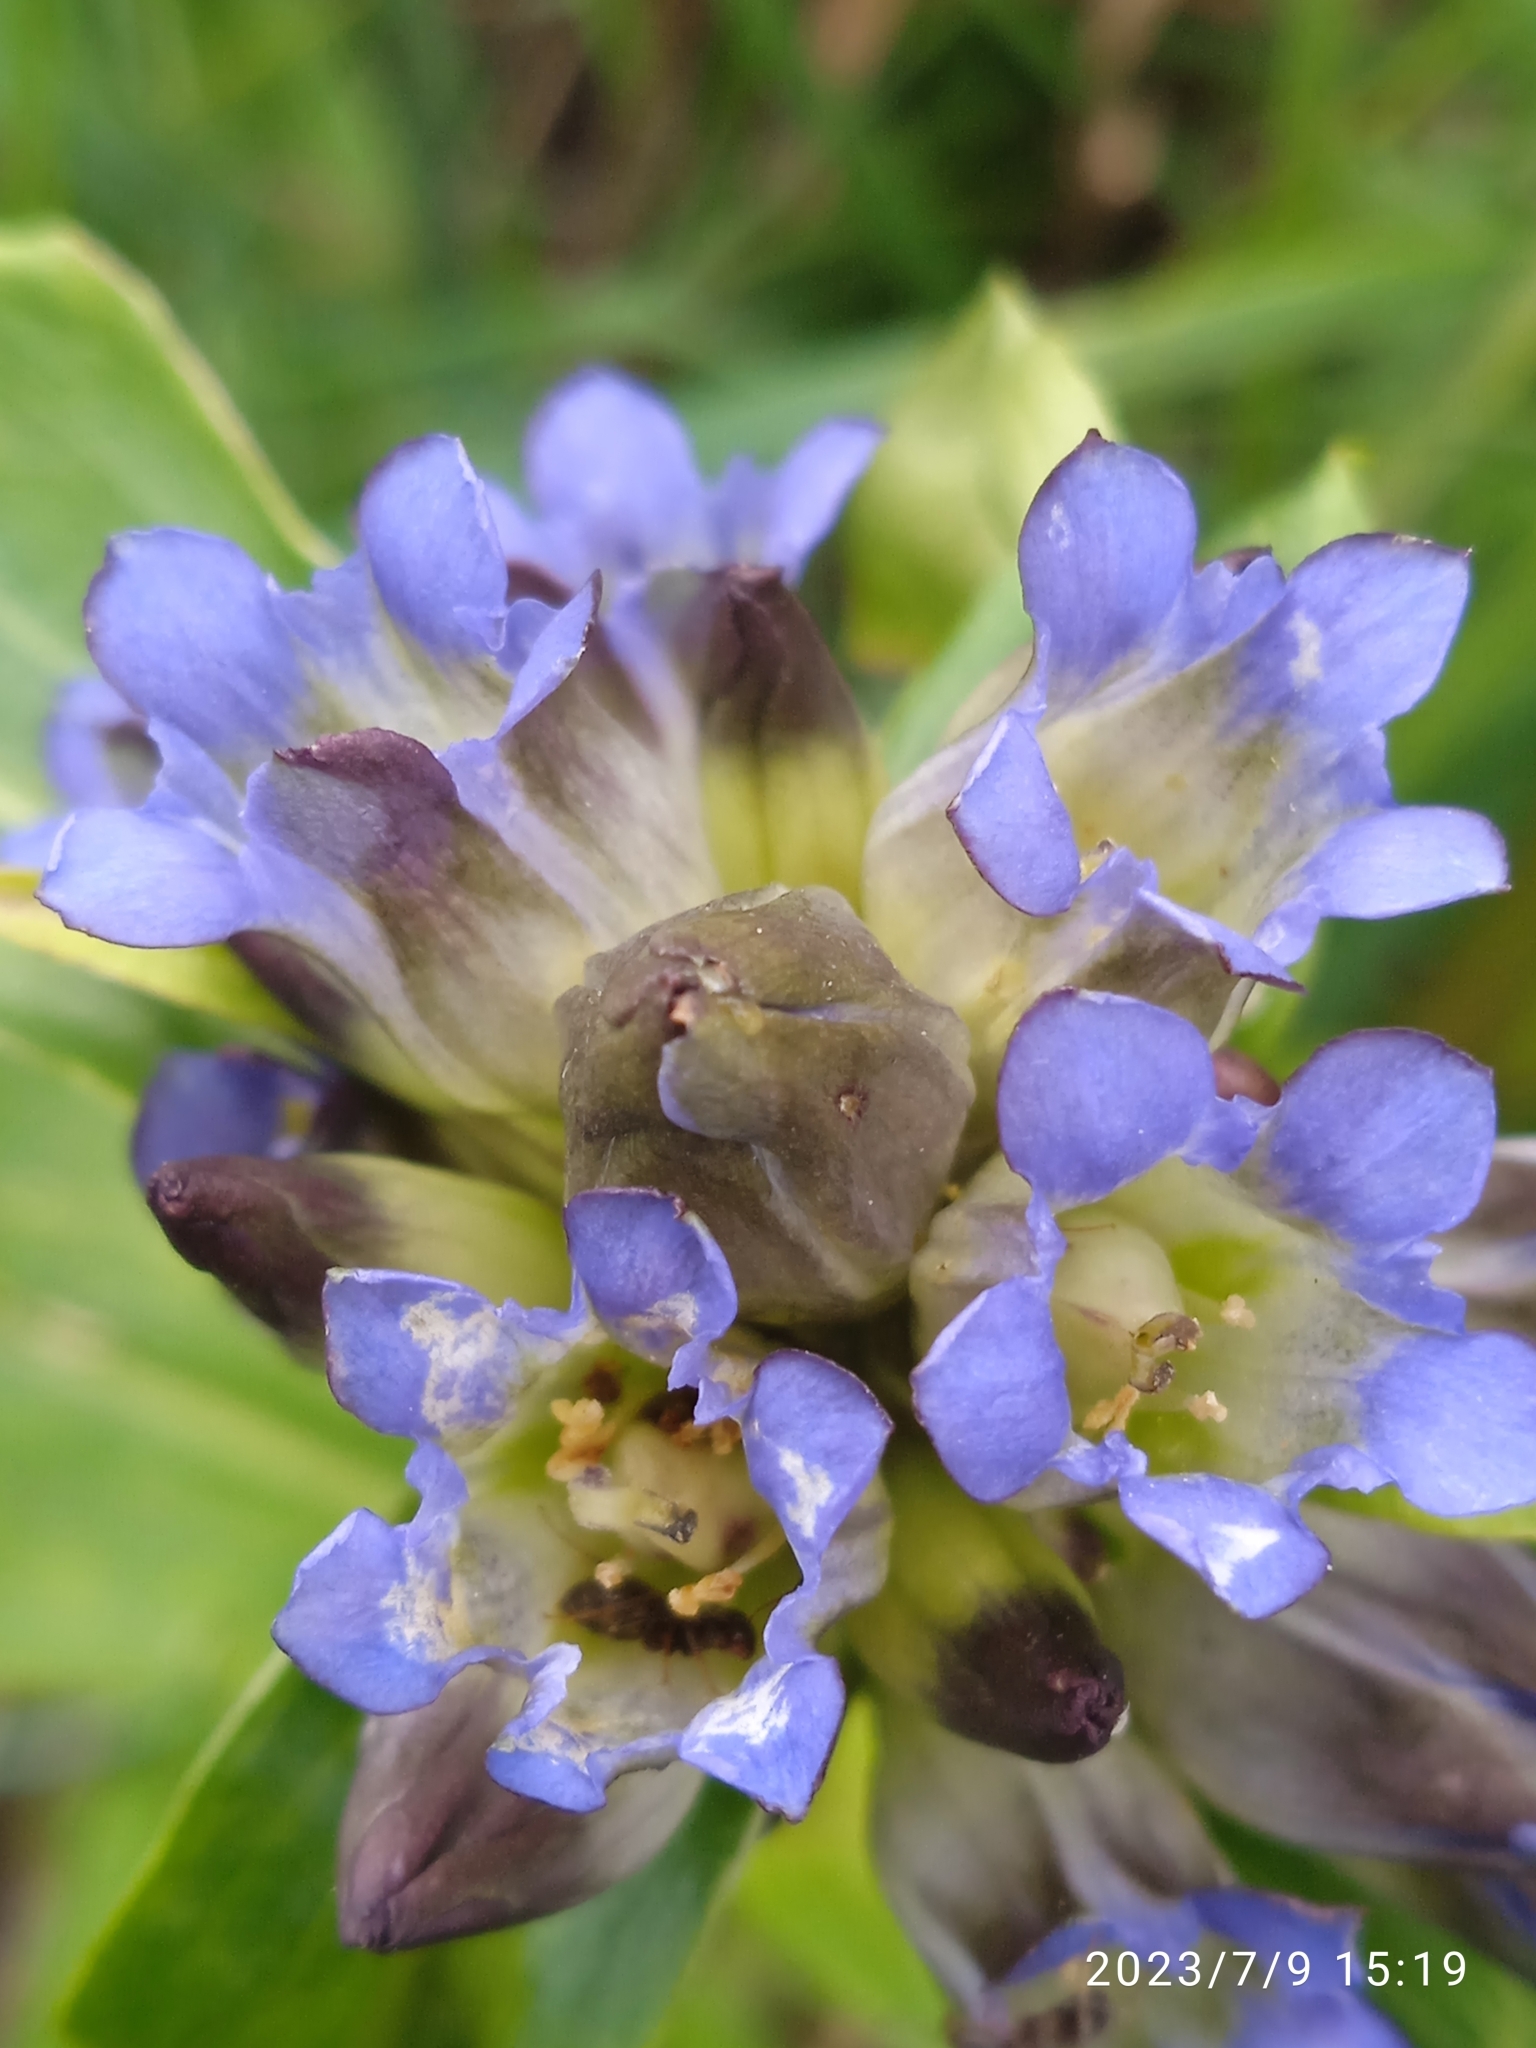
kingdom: Plantae
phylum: Tracheophyta
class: Magnoliopsida
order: Gentianales
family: Gentianaceae
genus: Gentiana
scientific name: Gentiana macrophylla
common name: Large-leaf gentian
